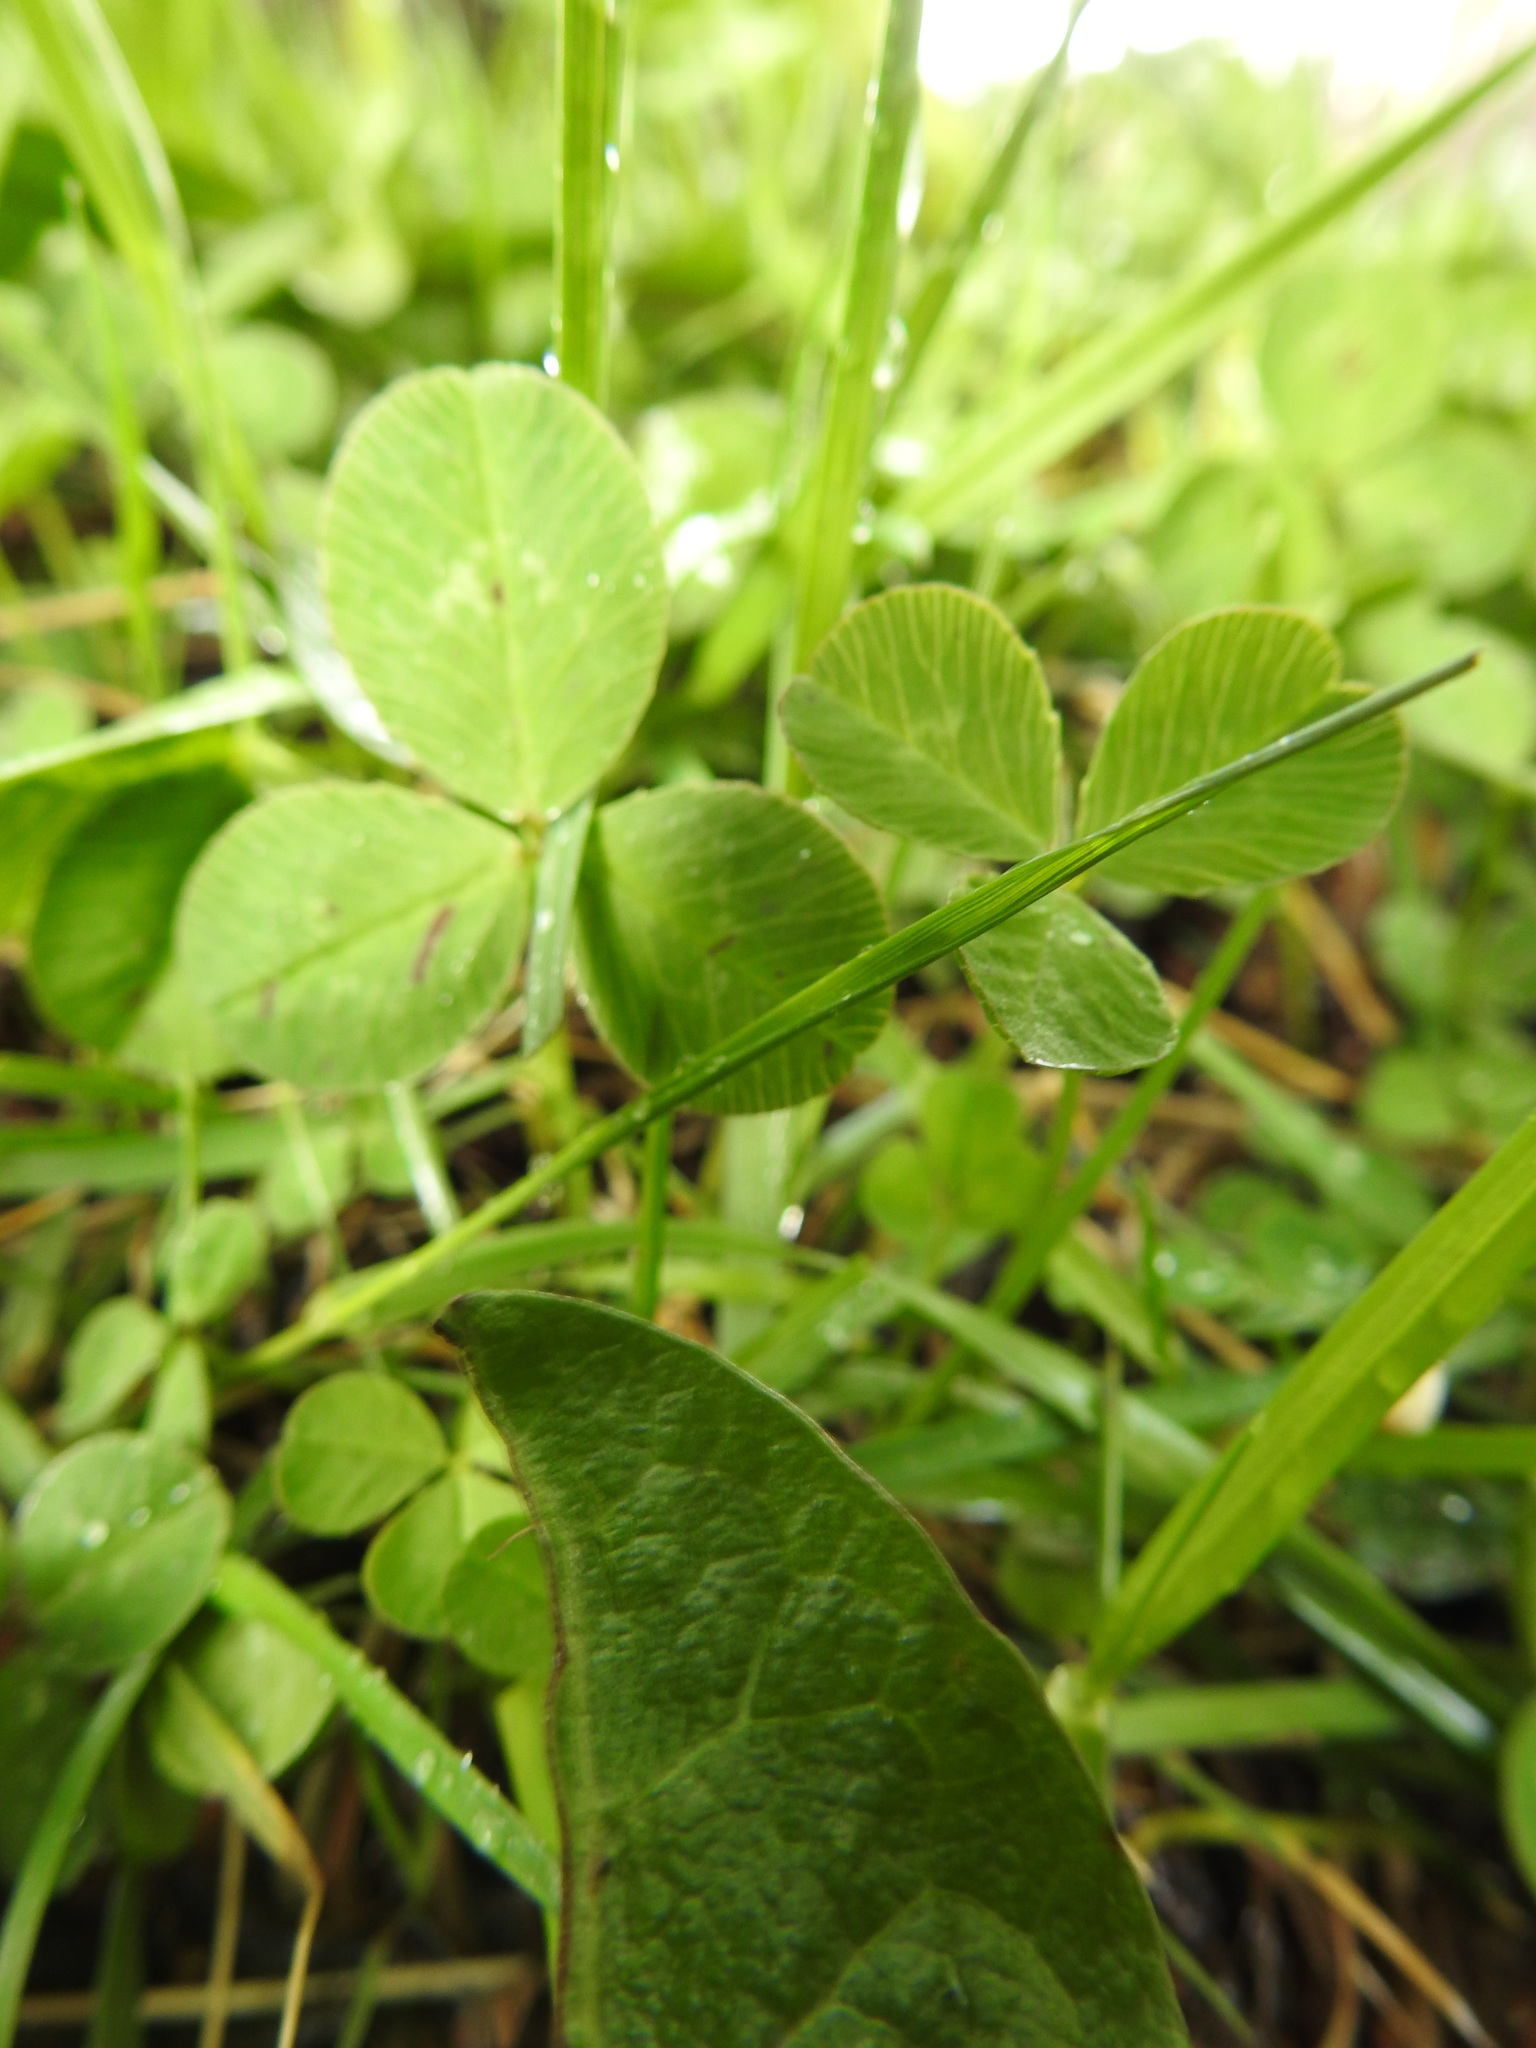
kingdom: Plantae
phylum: Tracheophyta
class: Magnoliopsida
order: Fabales
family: Fabaceae
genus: Trifolium
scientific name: Trifolium repens
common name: White clover
